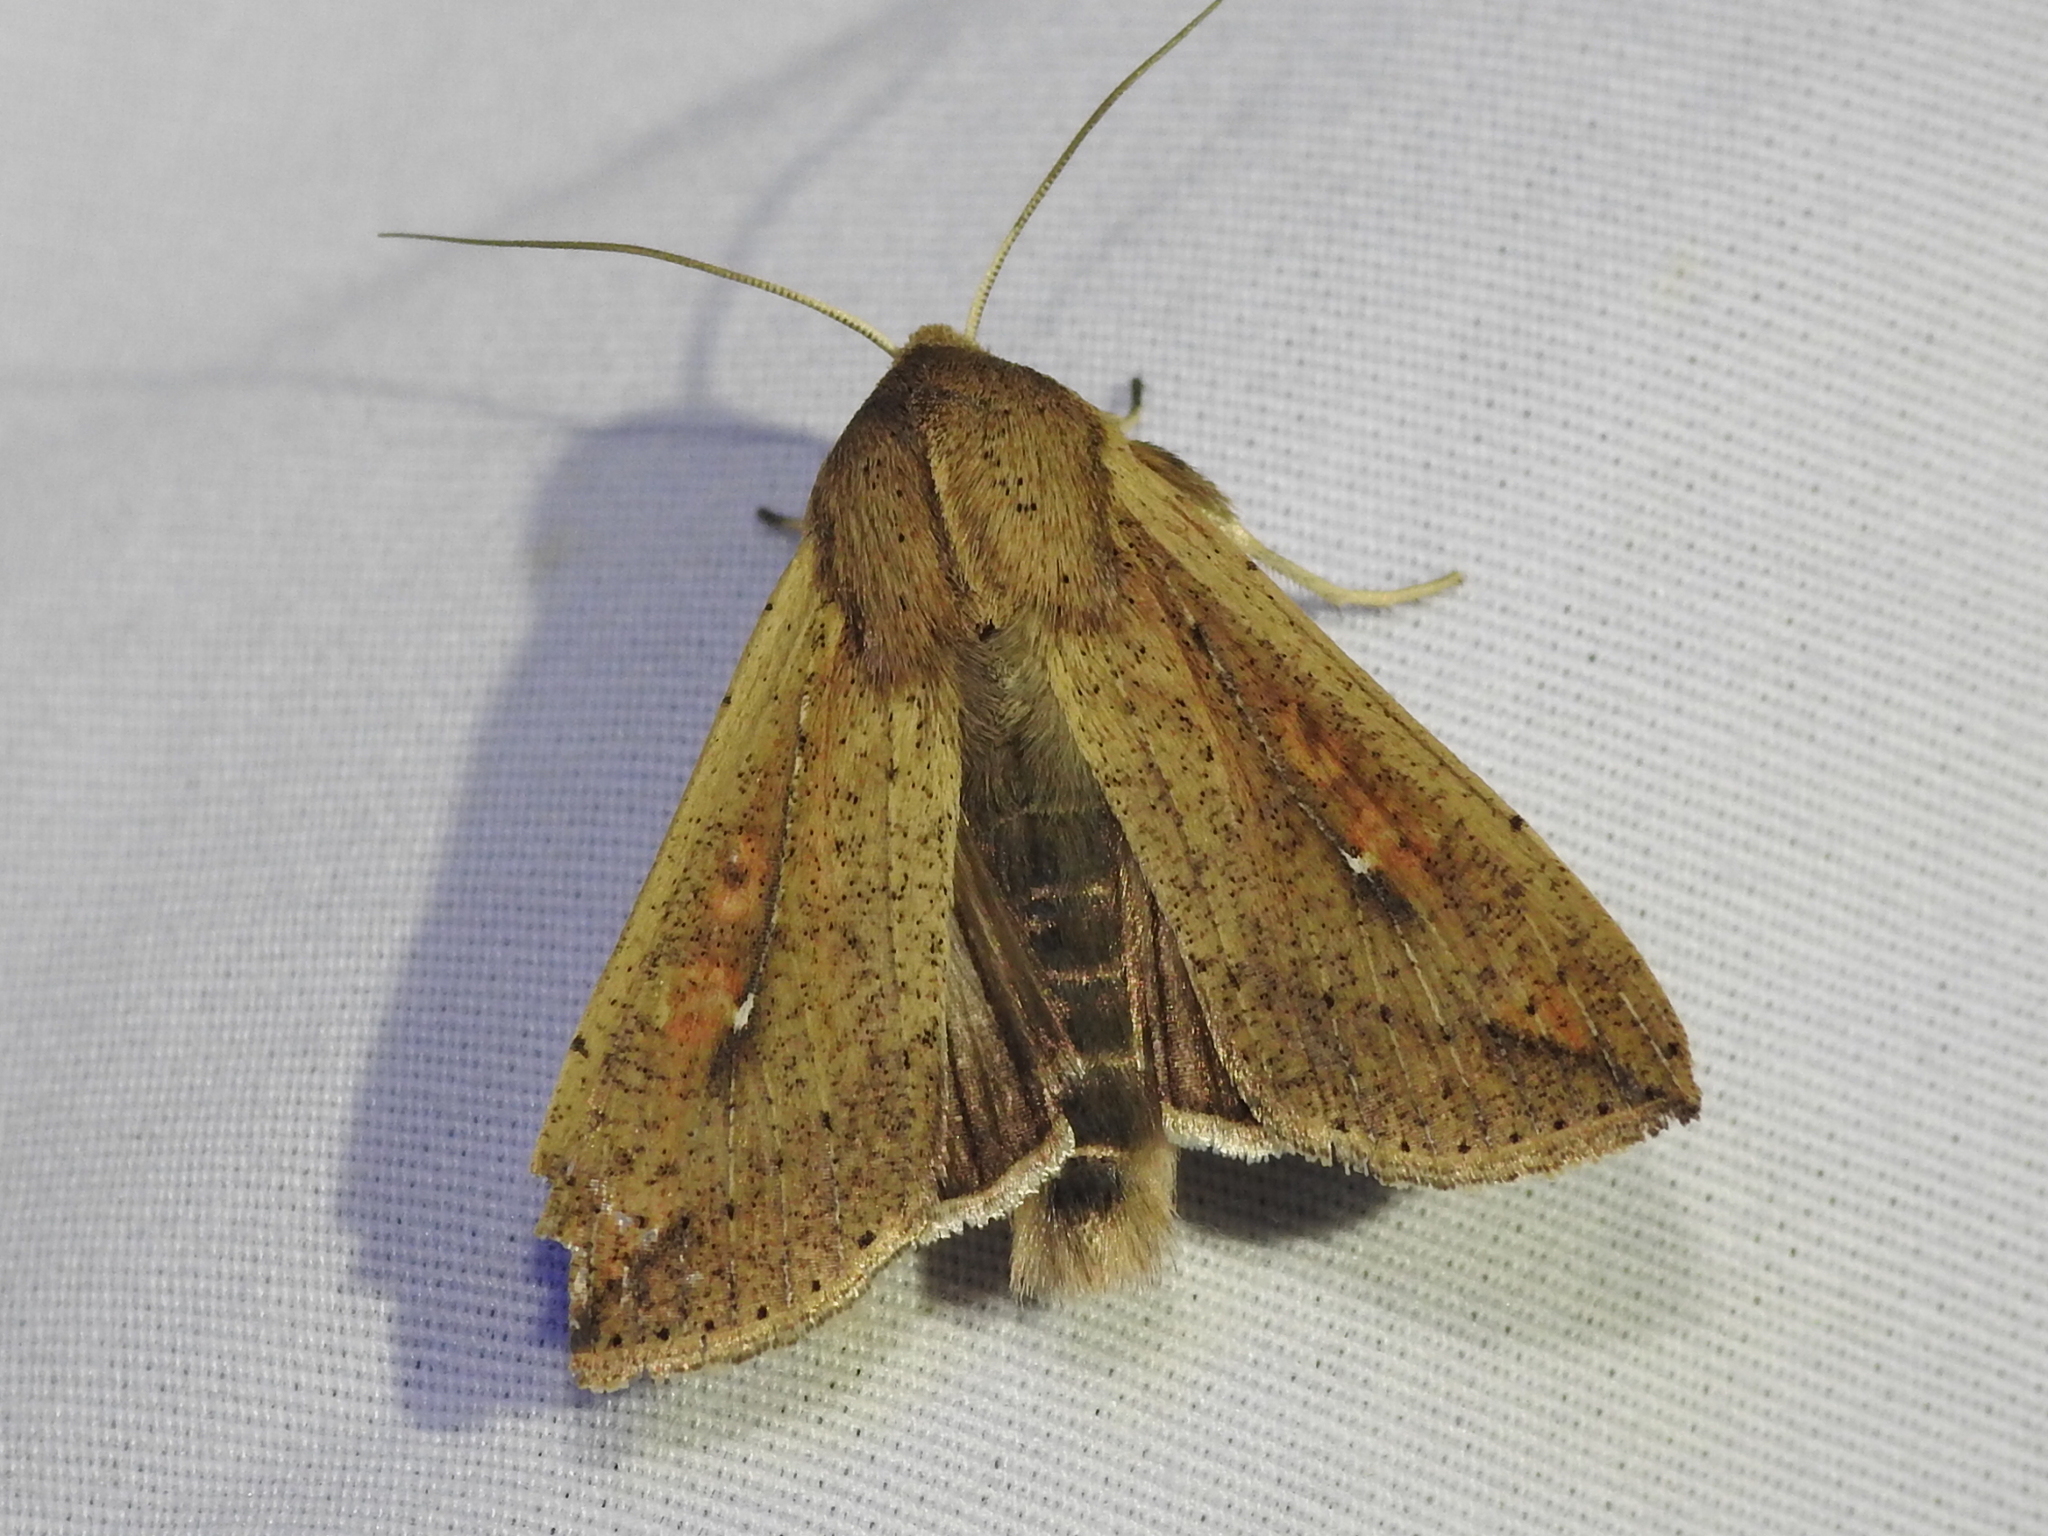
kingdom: Animalia
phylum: Arthropoda
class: Insecta
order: Lepidoptera
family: Noctuidae
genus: Mythimna
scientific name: Mythimna unipuncta
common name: White-speck
